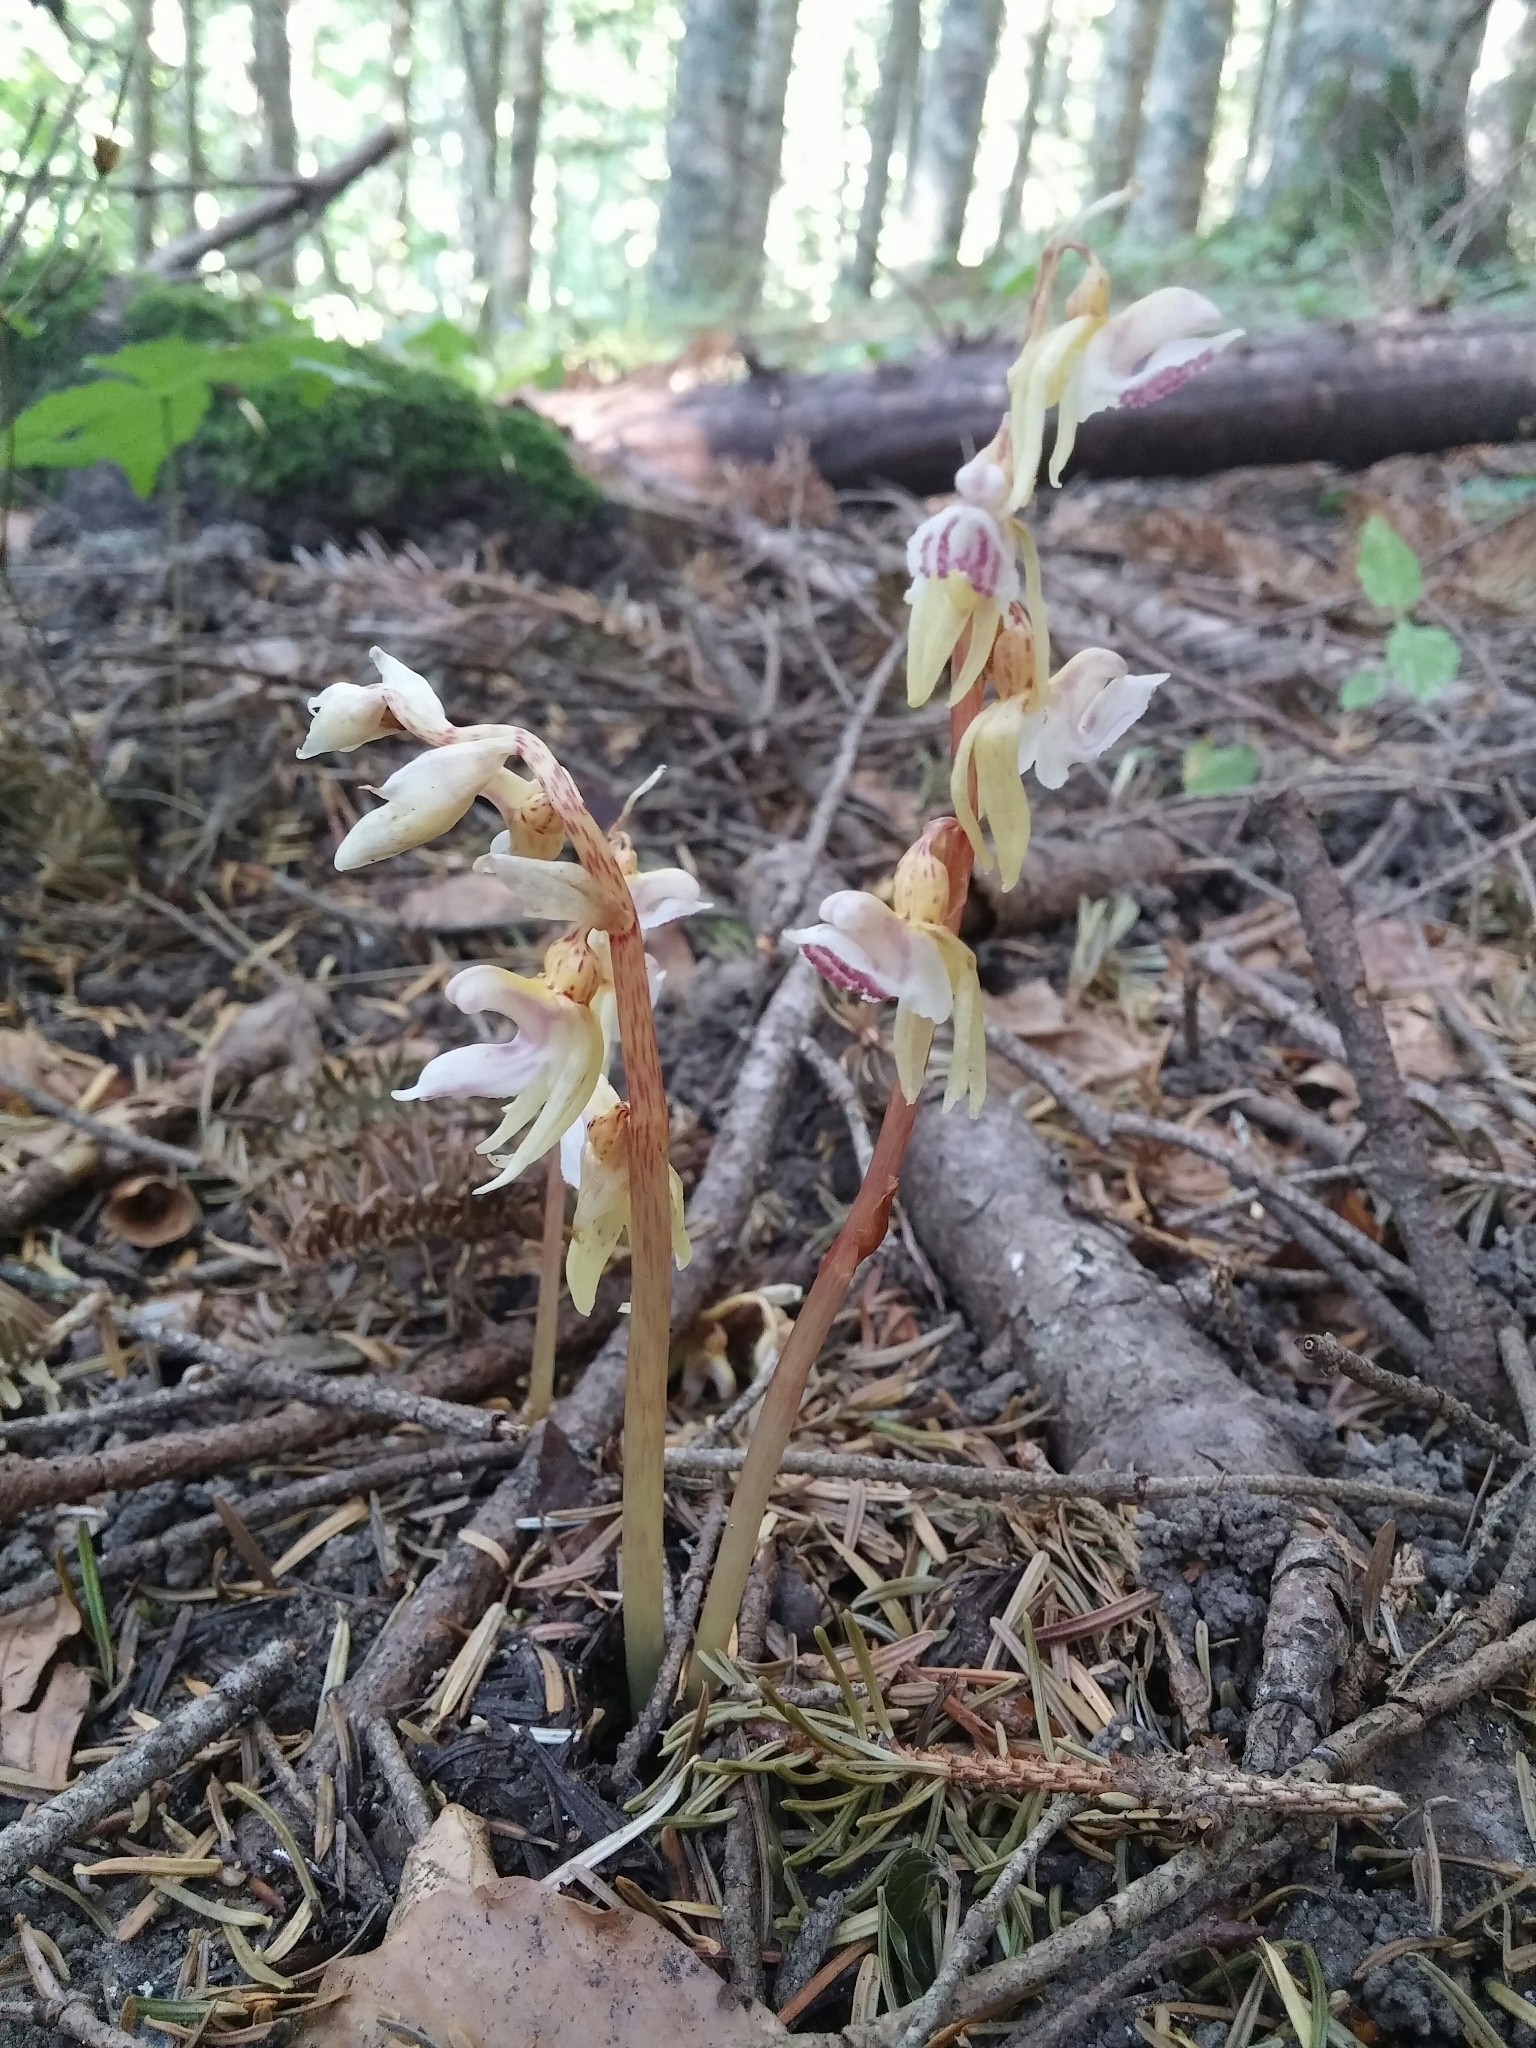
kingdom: Plantae
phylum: Tracheophyta
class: Liliopsida
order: Asparagales
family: Orchidaceae
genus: Epipogium
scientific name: Epipogium aphyllum
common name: Ghost orchid
